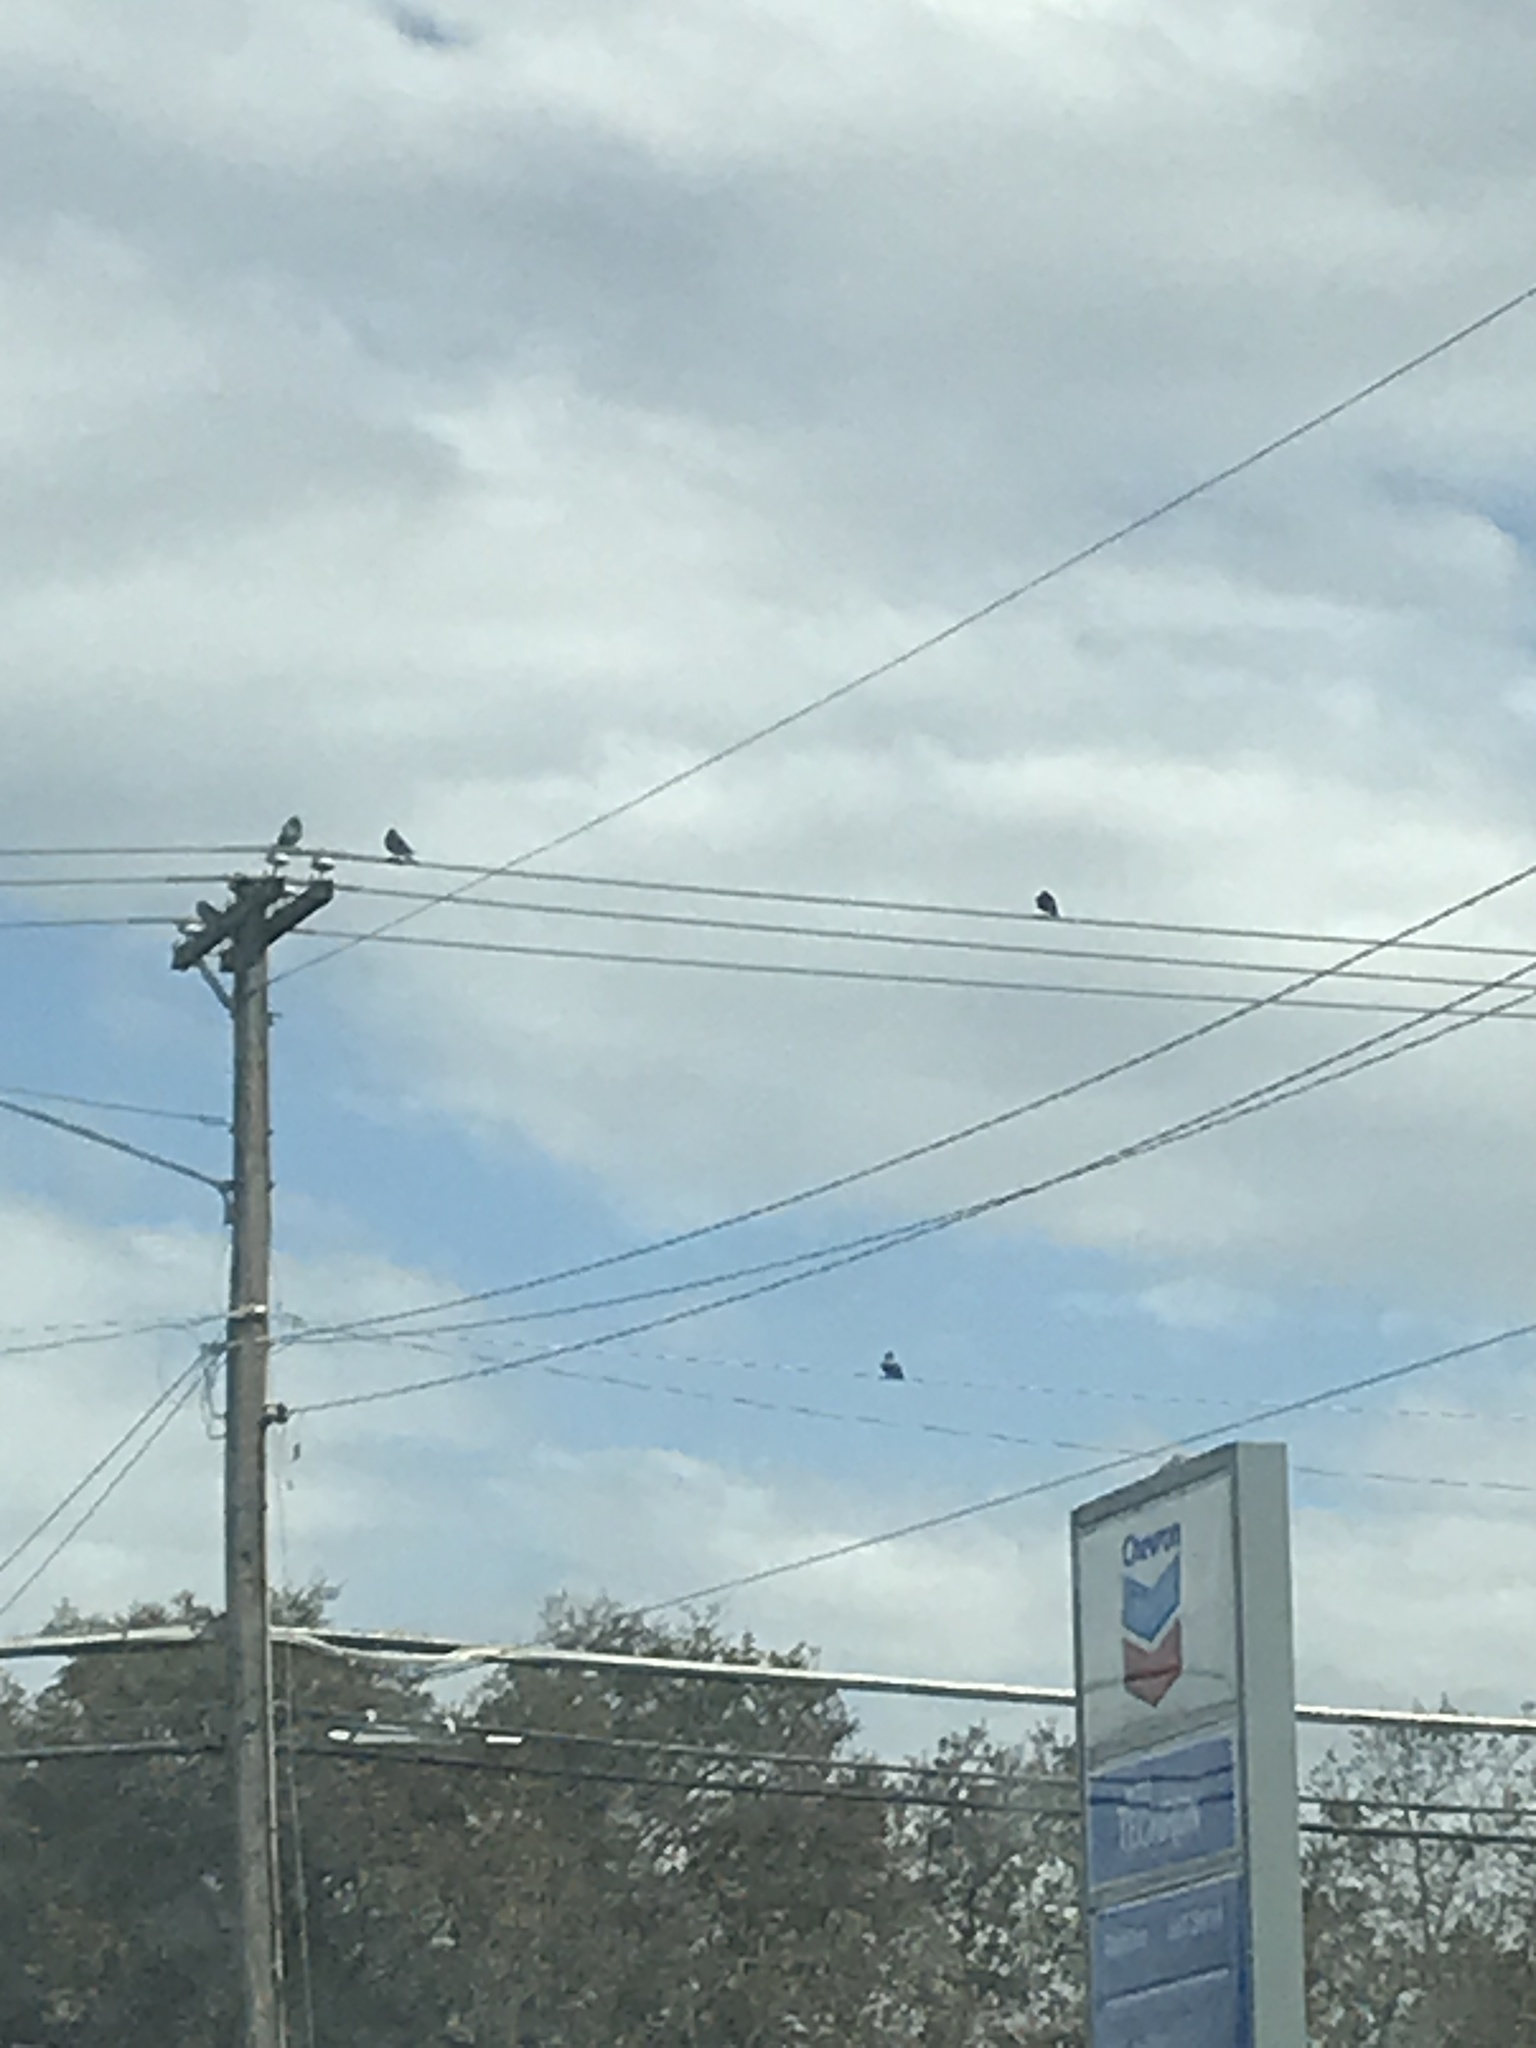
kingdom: Animalia
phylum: Chordata
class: Aves
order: Columbiformes
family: Columbidae
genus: Columba
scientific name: Columba livia
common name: Rock pigeon
